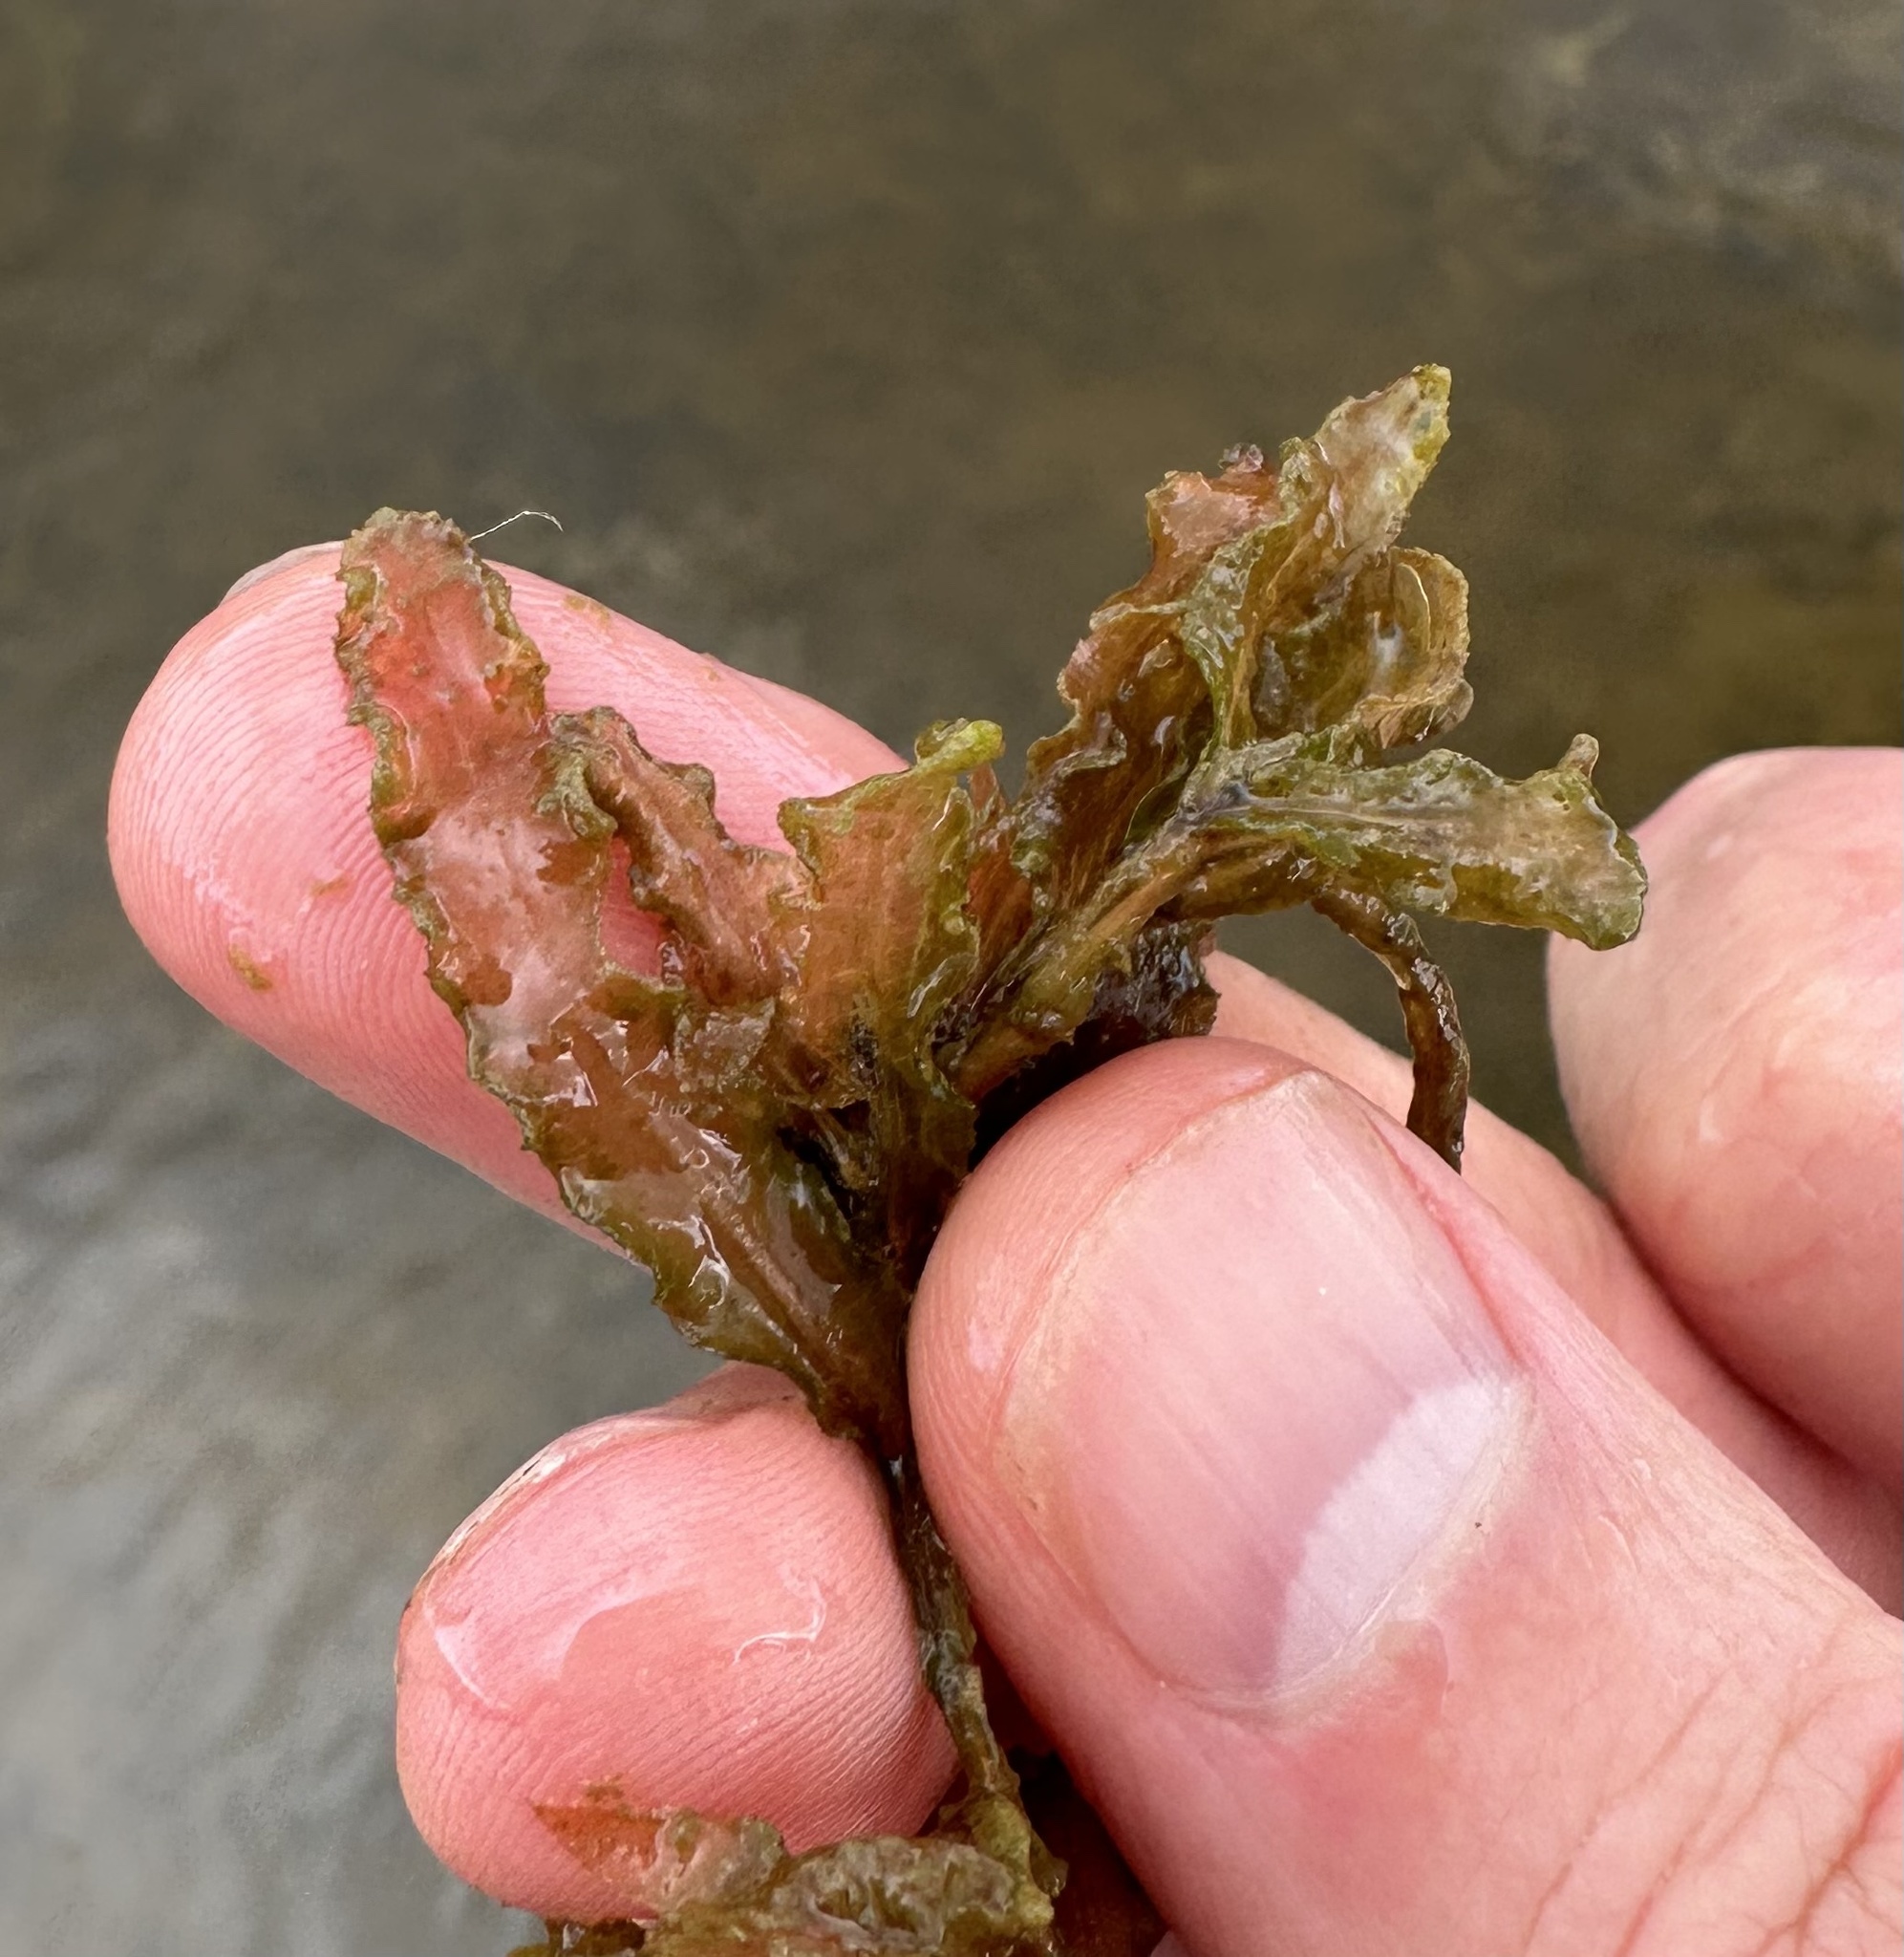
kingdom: Plantae
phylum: Tracheophyta
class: Liliopsida
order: Alismatales
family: Potamogetonaceae
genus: Potamogeton
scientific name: Potamogeton crispus
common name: Curled pondweed
